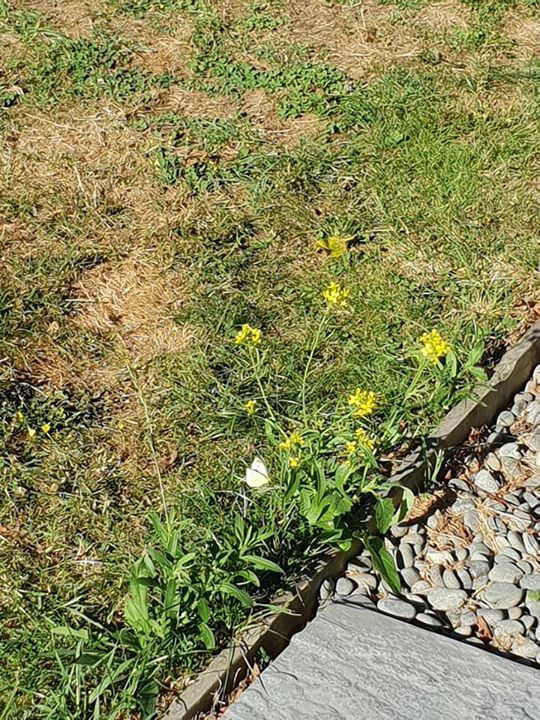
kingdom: Animalia
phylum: Arthropoda
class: Insecta
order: Lepidoptera
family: Pieridae
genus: Pieris
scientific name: Pieris rapae
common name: Small white
